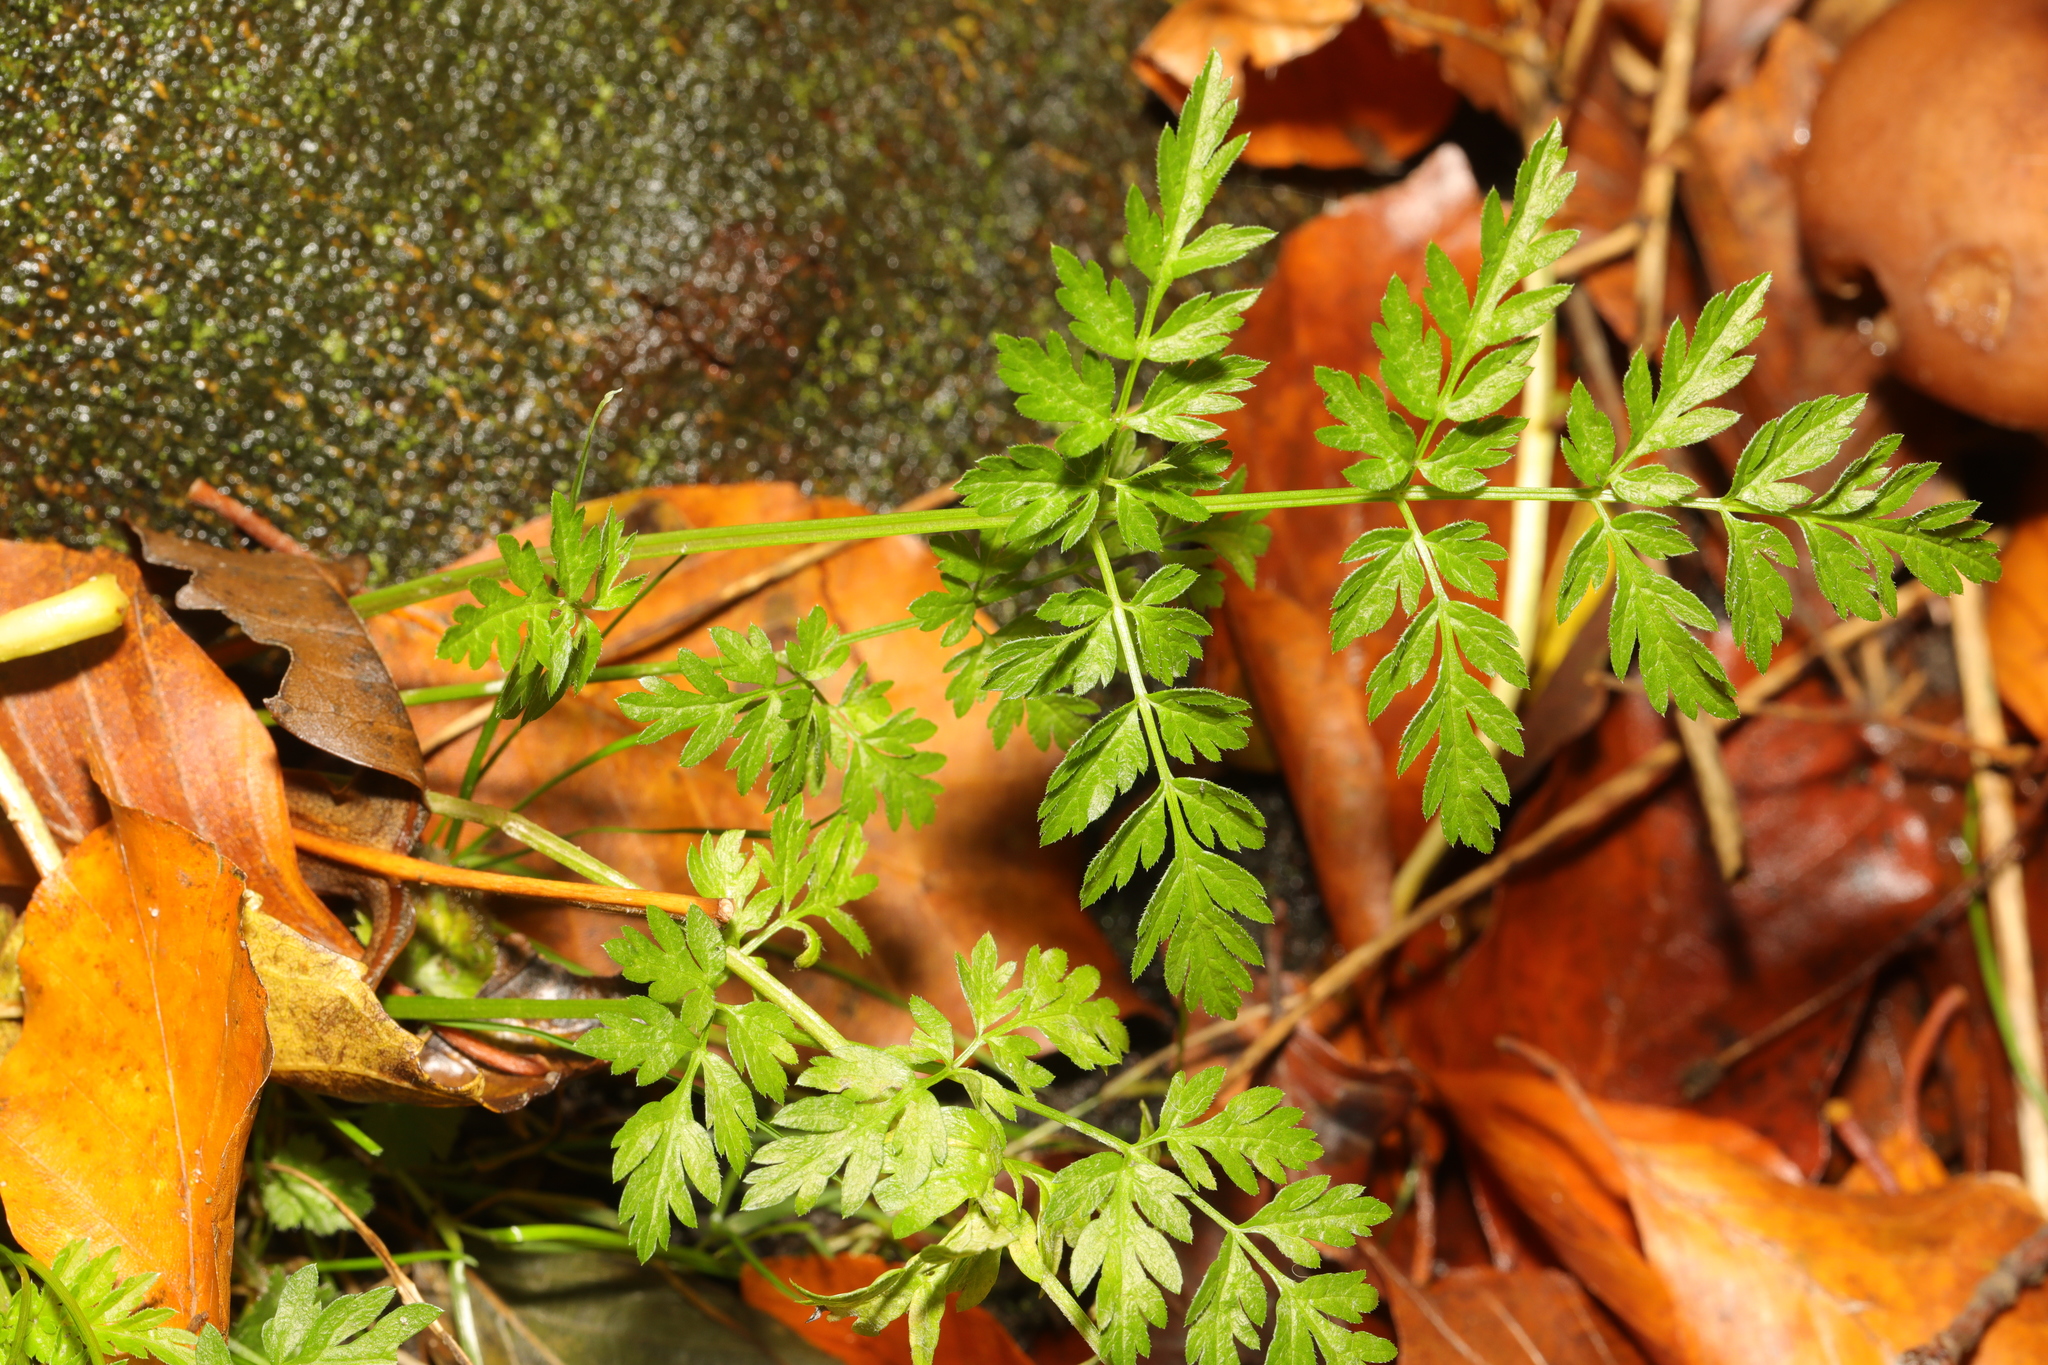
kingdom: Plantae
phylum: Tracheophyta
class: Magnoliopsida
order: Apiales
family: Apiaceae
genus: Anthriscus
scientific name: Anthriscus sylvestris
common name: Cow parsley
